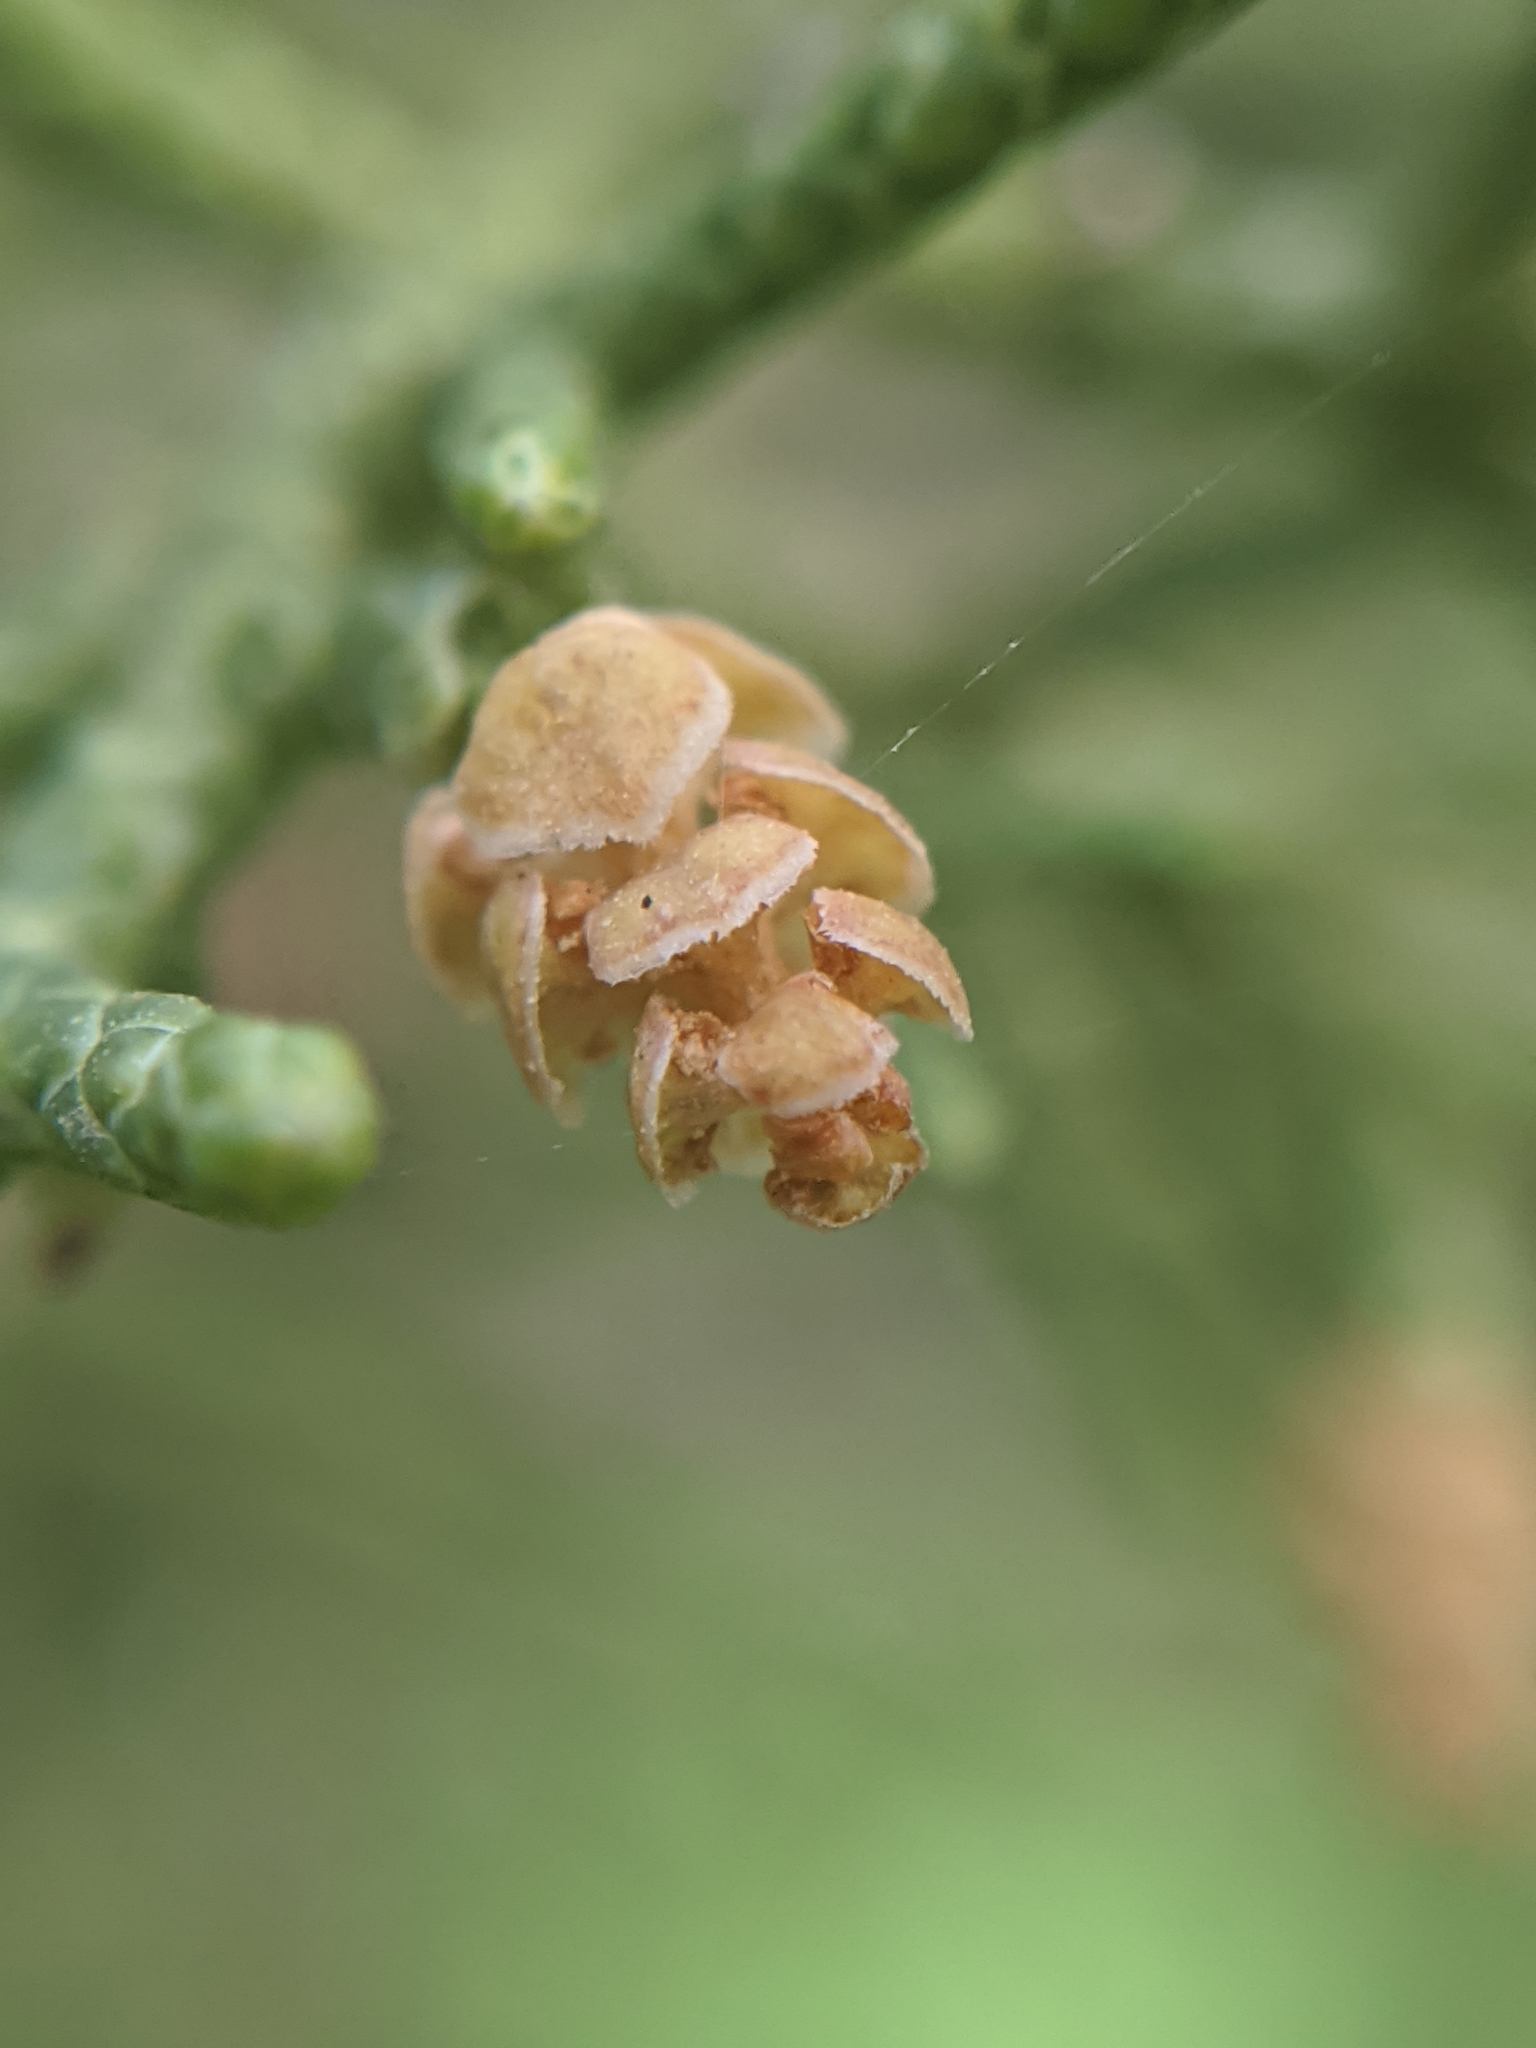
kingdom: Plantae
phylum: Tracheophyta
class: Pinopsida
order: Pinales
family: Cupressaceae
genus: Juniperus
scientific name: Juniperus californica
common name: California juniper
